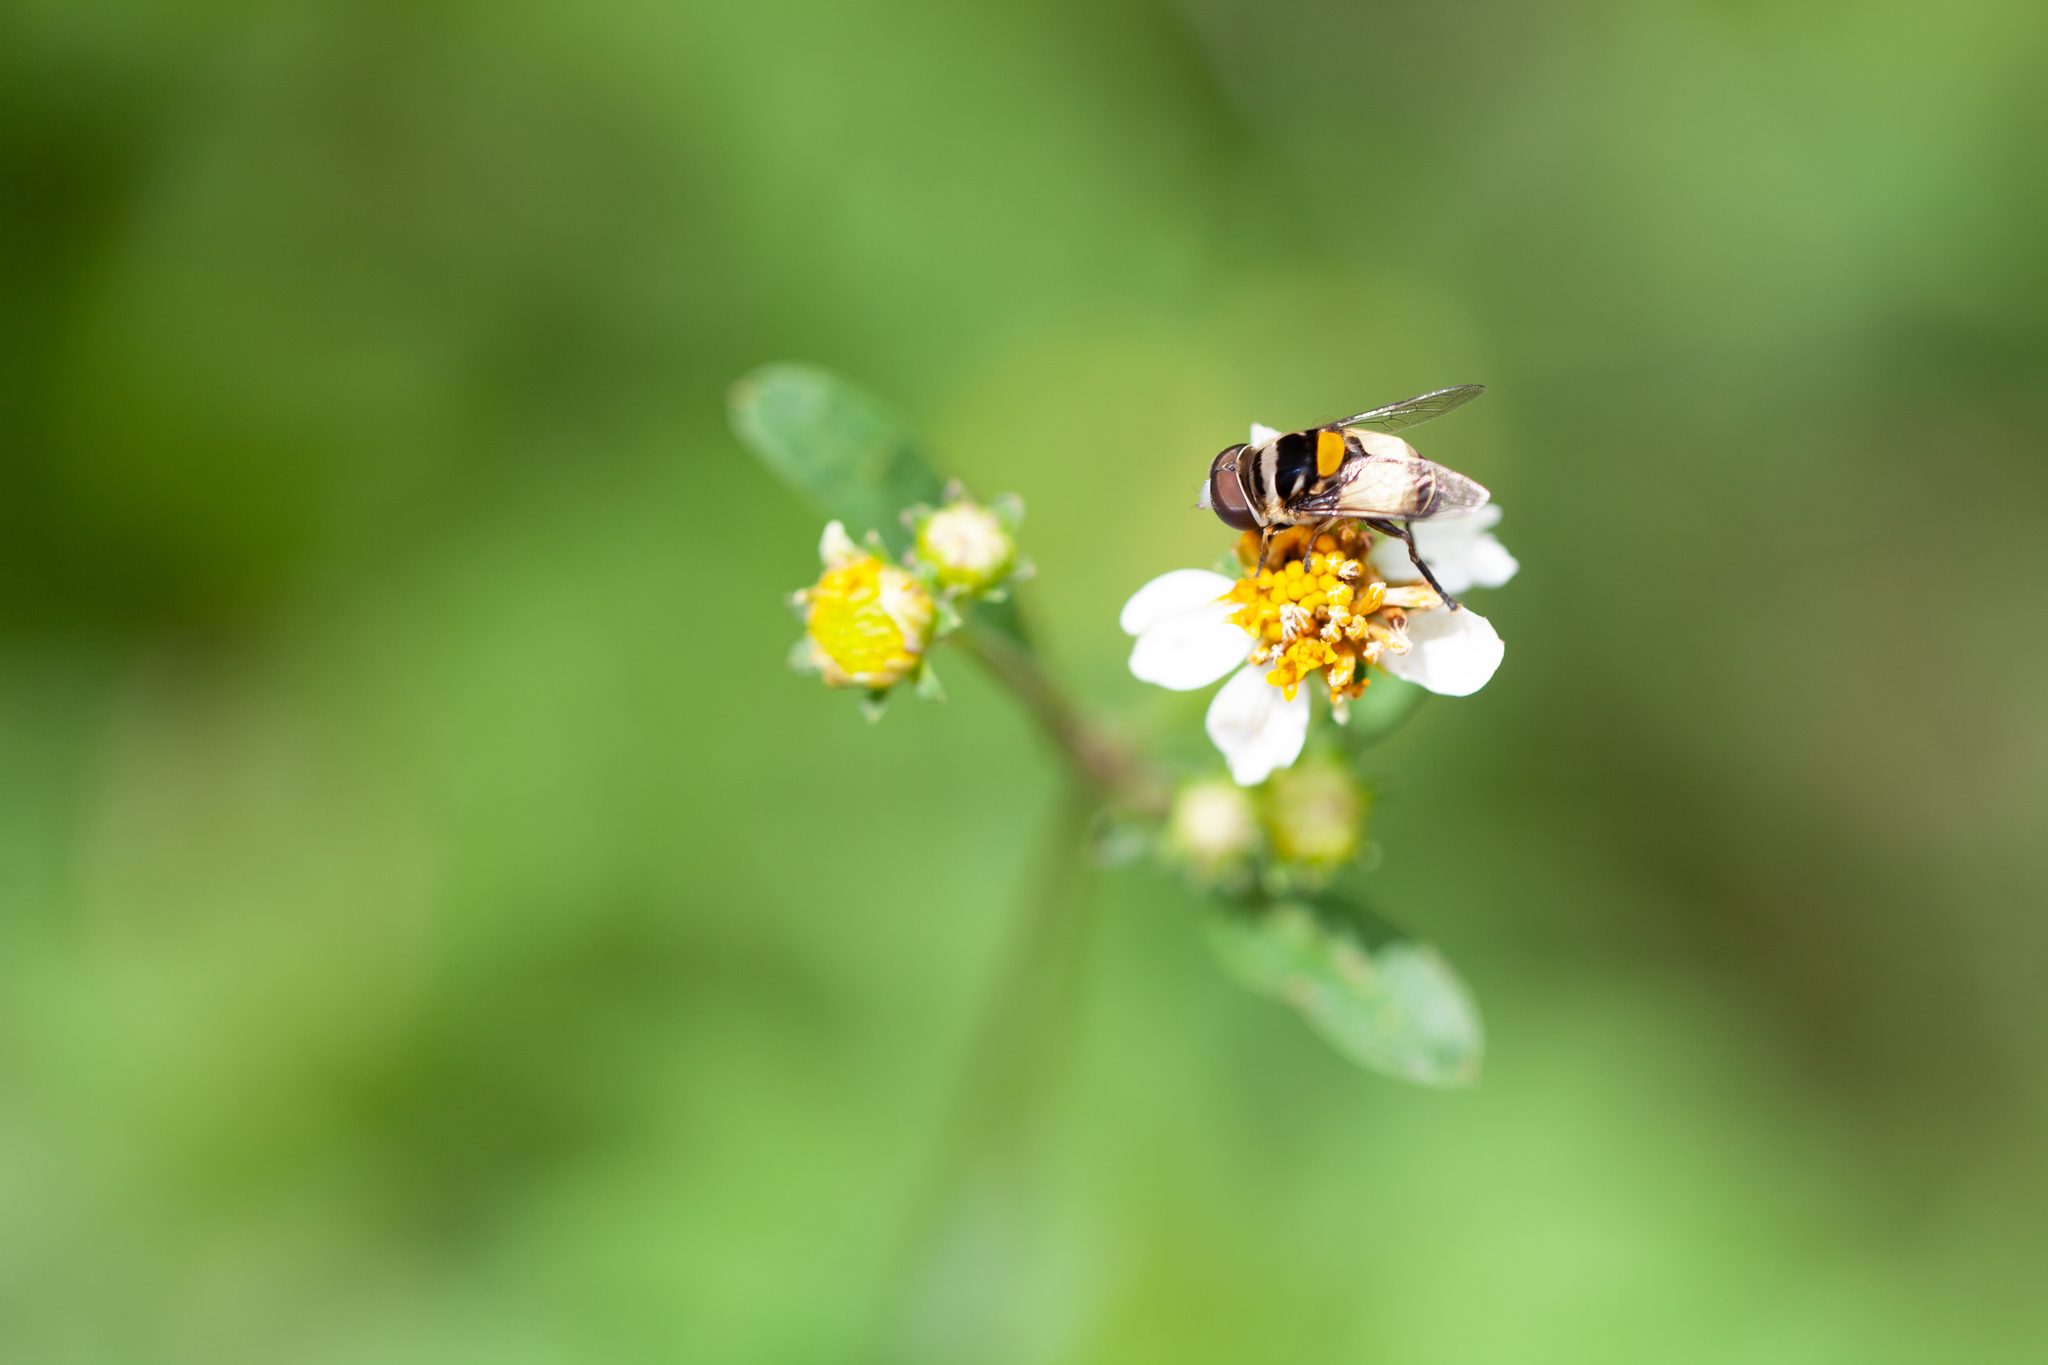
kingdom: Animalia
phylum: Arthropoda
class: Insecta
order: Diptera
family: Syrphidae
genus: Palpada
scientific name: Palpada albifrons
